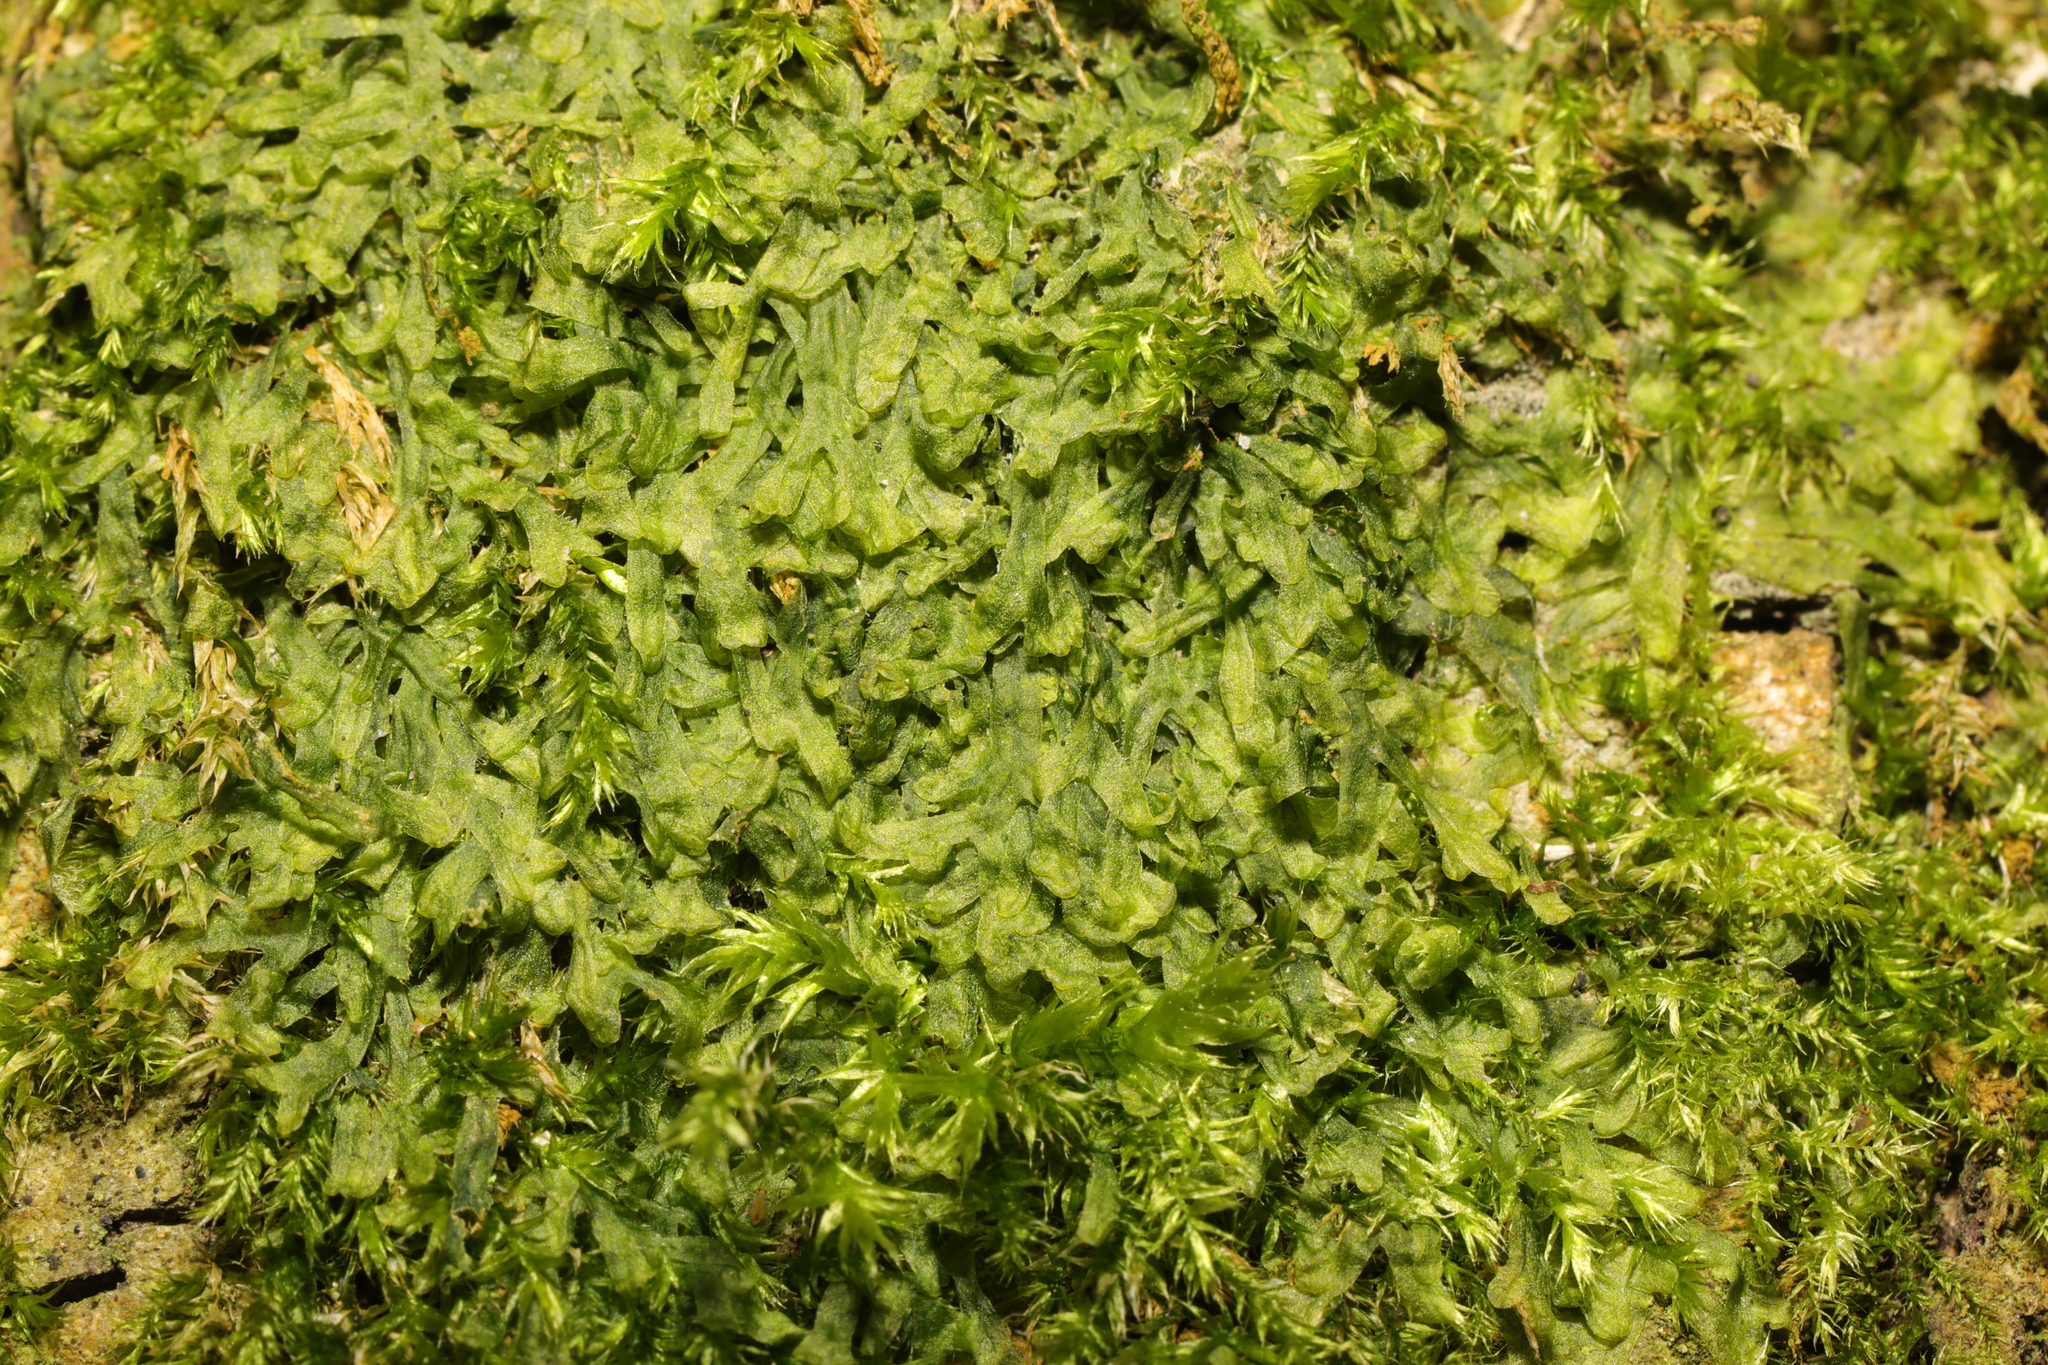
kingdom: Plantae
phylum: Marchantiophyta
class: Jungermanniopsida
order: Metzgeriales
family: Metzgeriaceae
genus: Metzgeria
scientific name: Metzgeria furcata
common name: Forked veilwort
